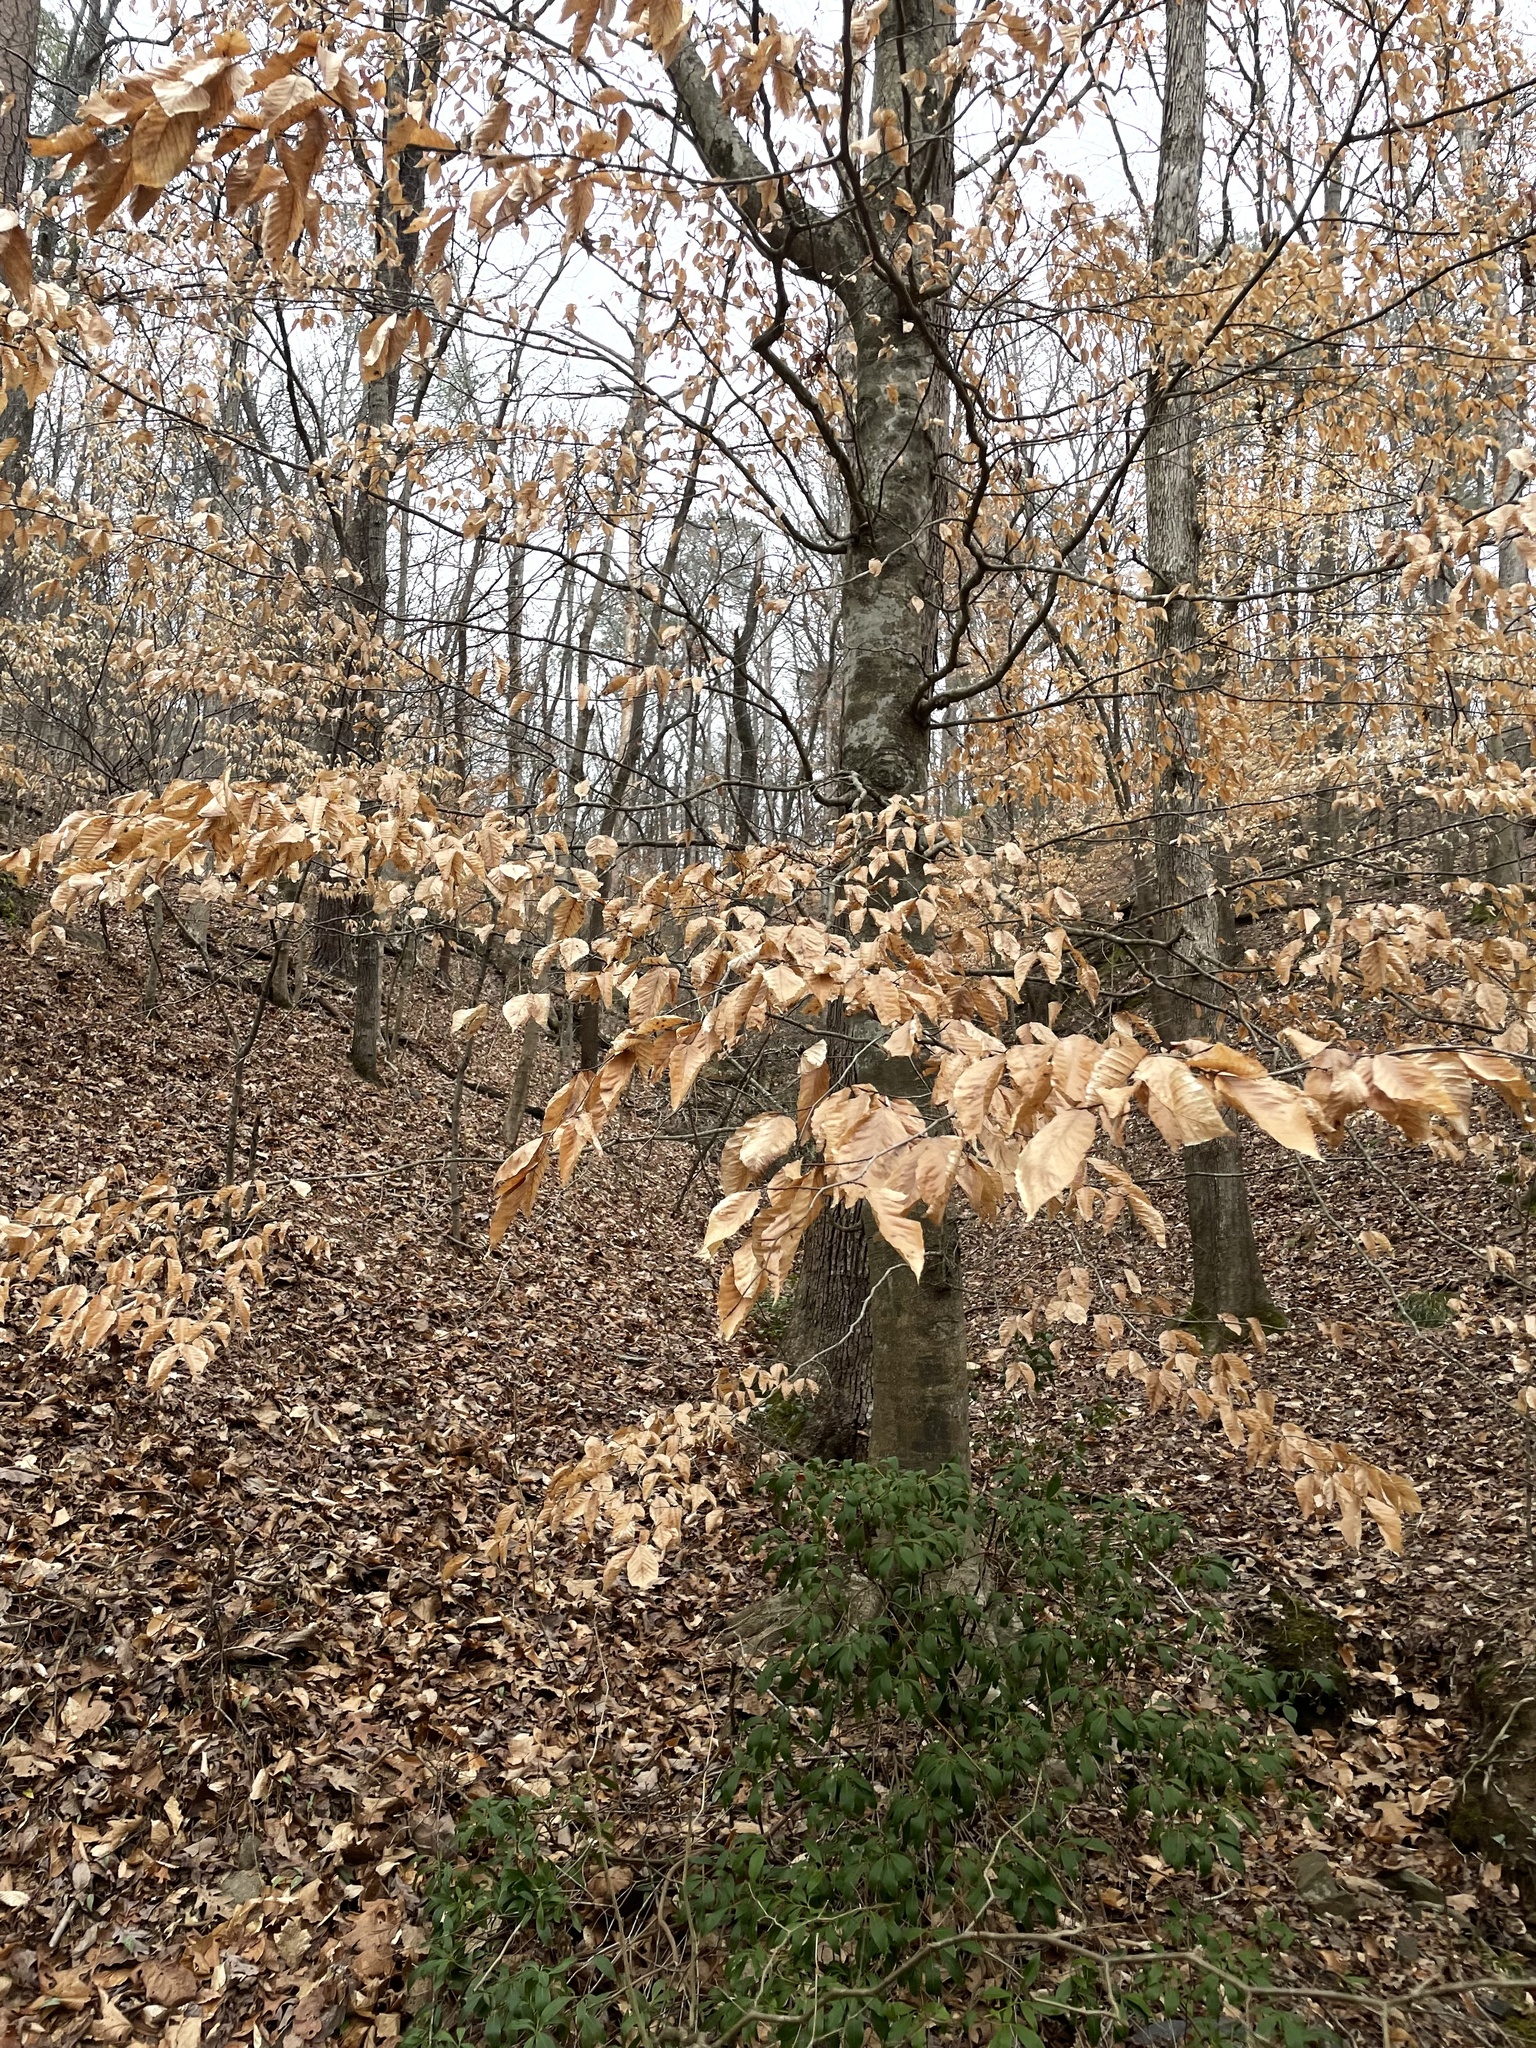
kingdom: Plantae
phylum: Tracheophyta
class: Magnoliopsida
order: Fagales
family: Fagaceae
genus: Fagus
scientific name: Fagus grandifolia
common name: American beech
